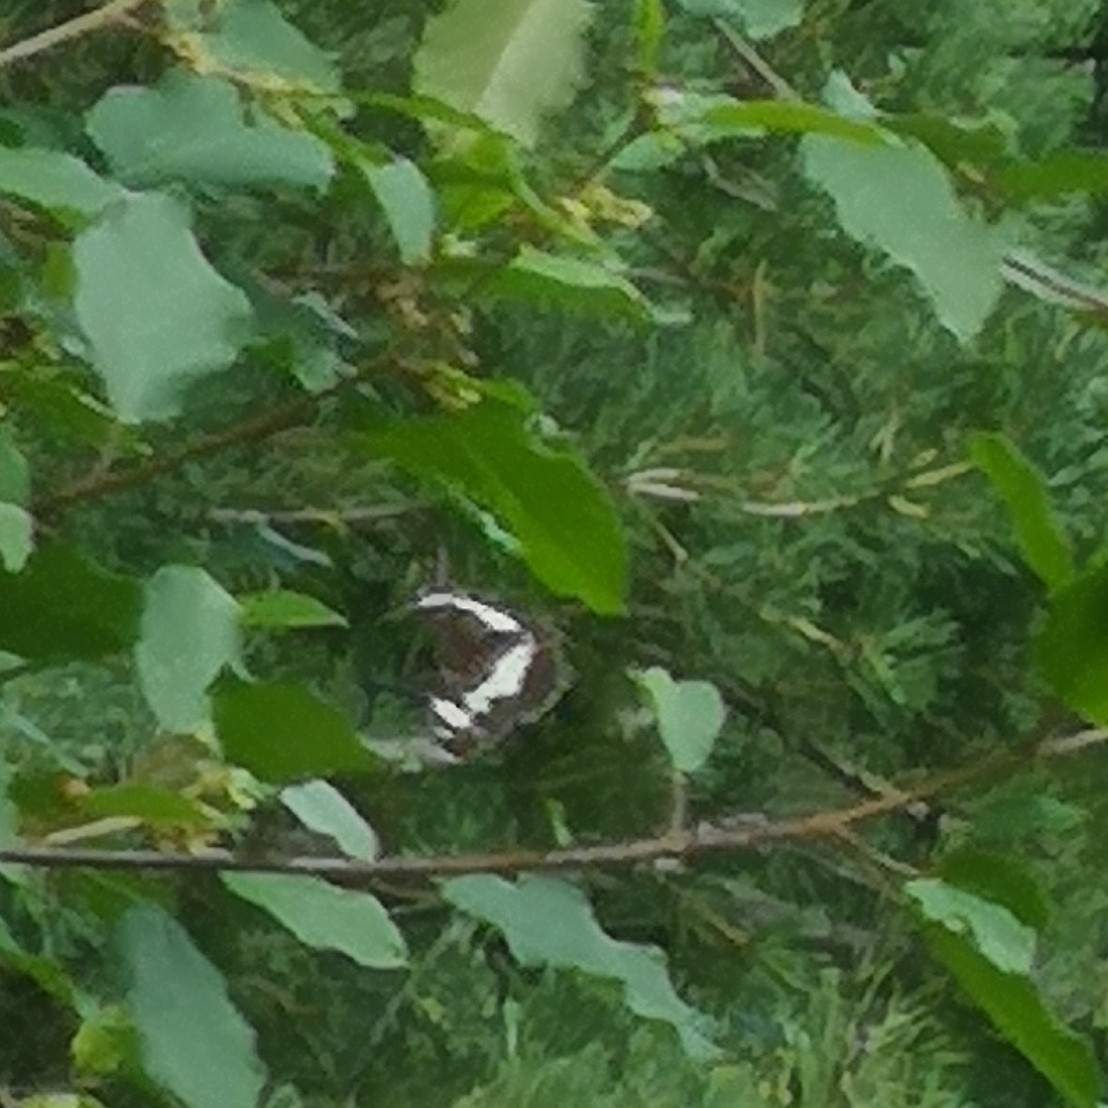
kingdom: Animalia
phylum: Arthropoda
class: Insecta
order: Lepidoptera
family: Nymphalidae
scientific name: Nymphalidae
